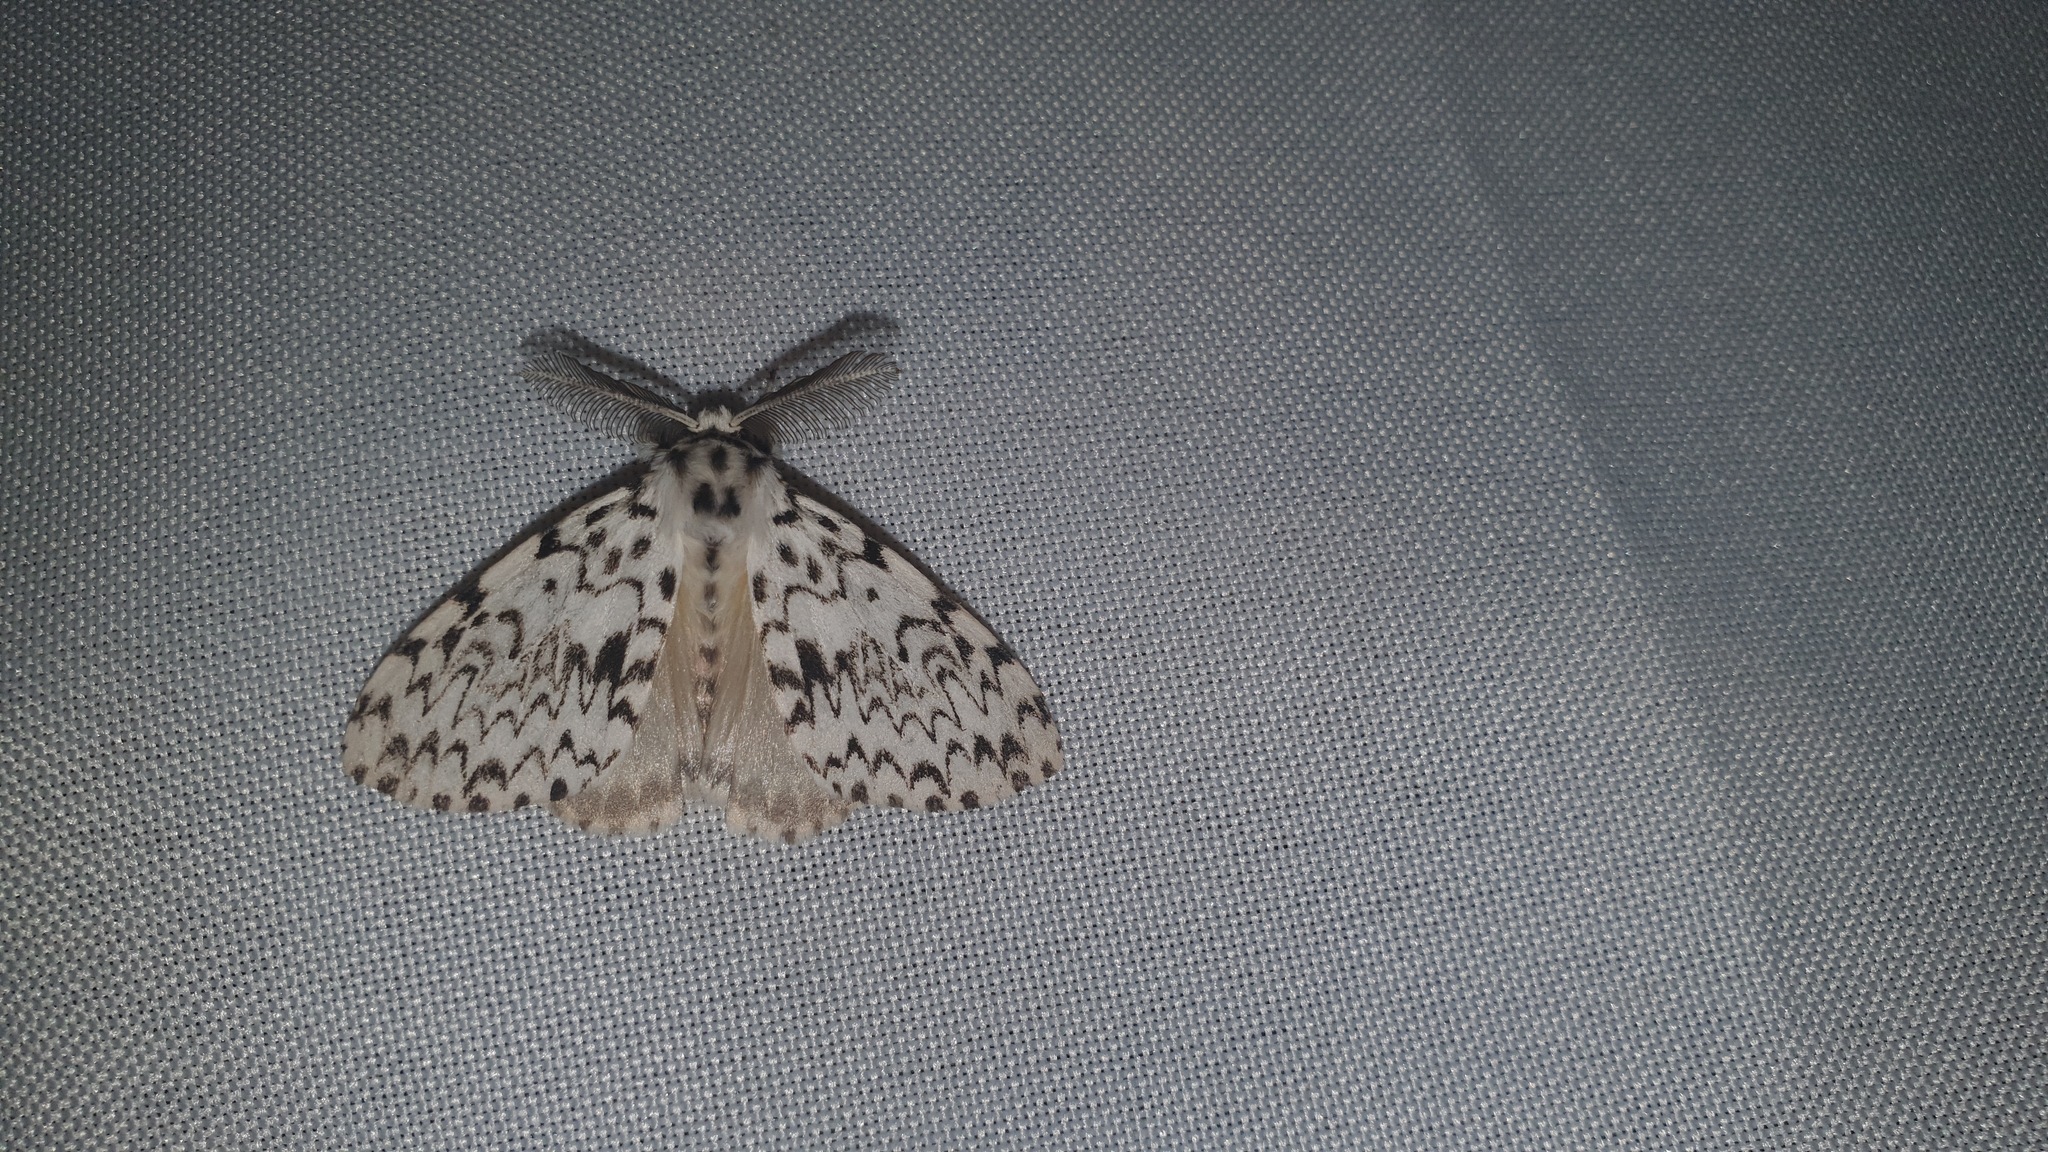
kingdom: Animalia
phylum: Arthropoda
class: Insecta
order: Lepidoptera
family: Erebidae
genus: Lymantria
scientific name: Lymantria monacha
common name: Black arches
